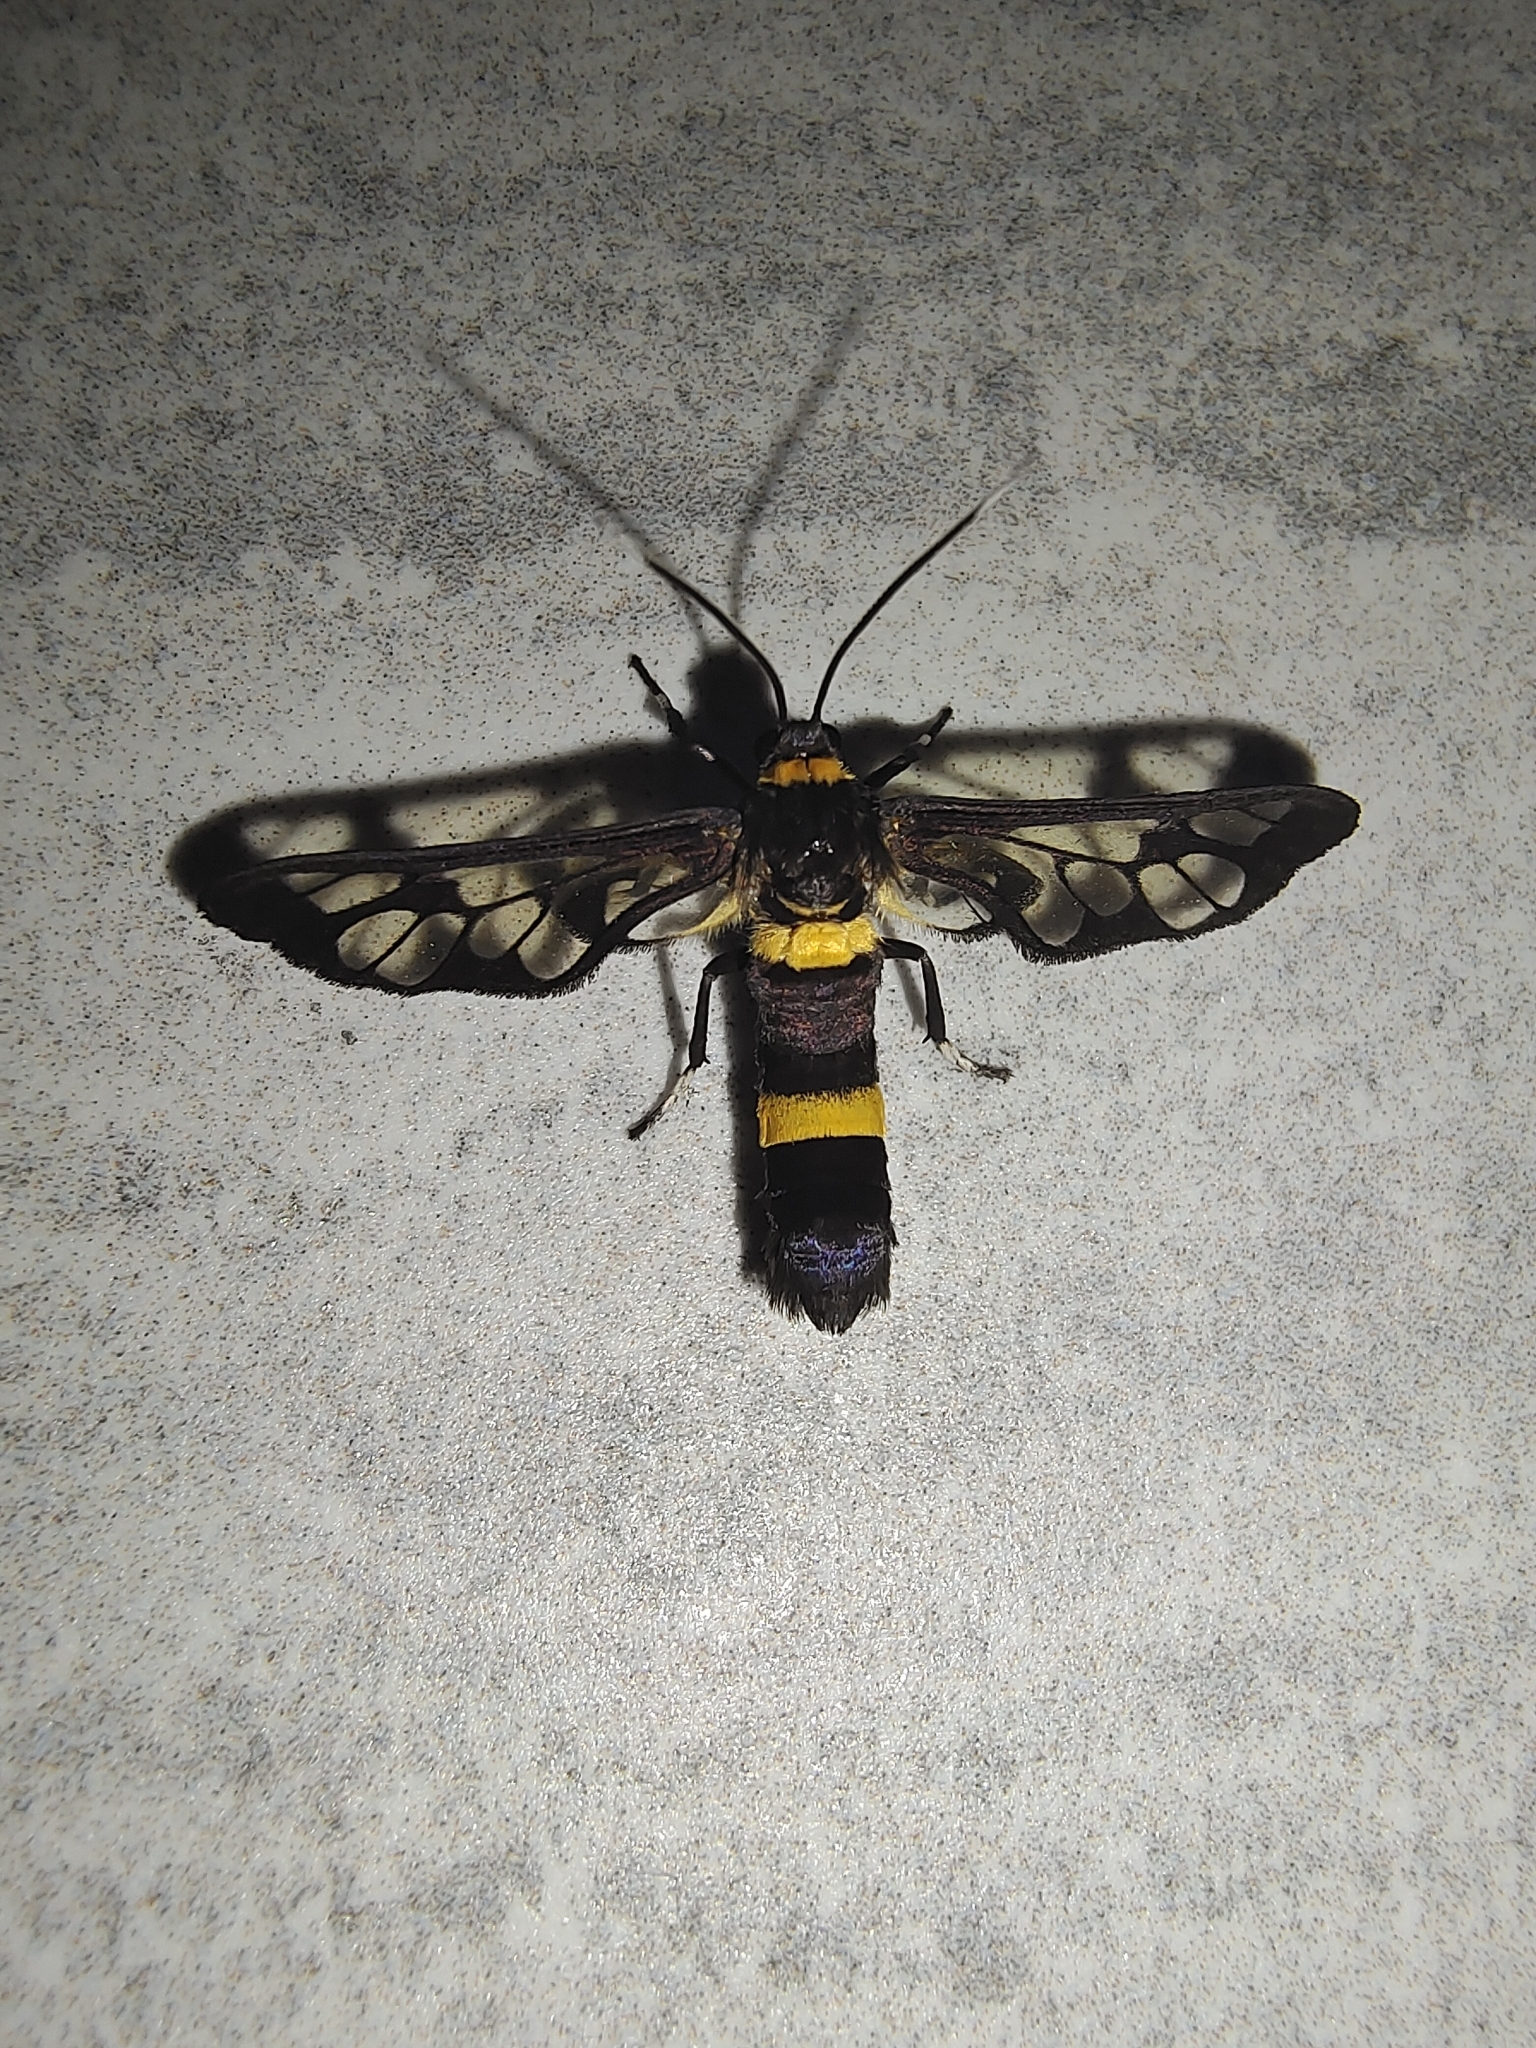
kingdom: Animalia
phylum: Arthropoda
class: Insecta
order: Lepidoptera
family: Erebidae
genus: Syntomoides
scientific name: Syntomoides imaon
